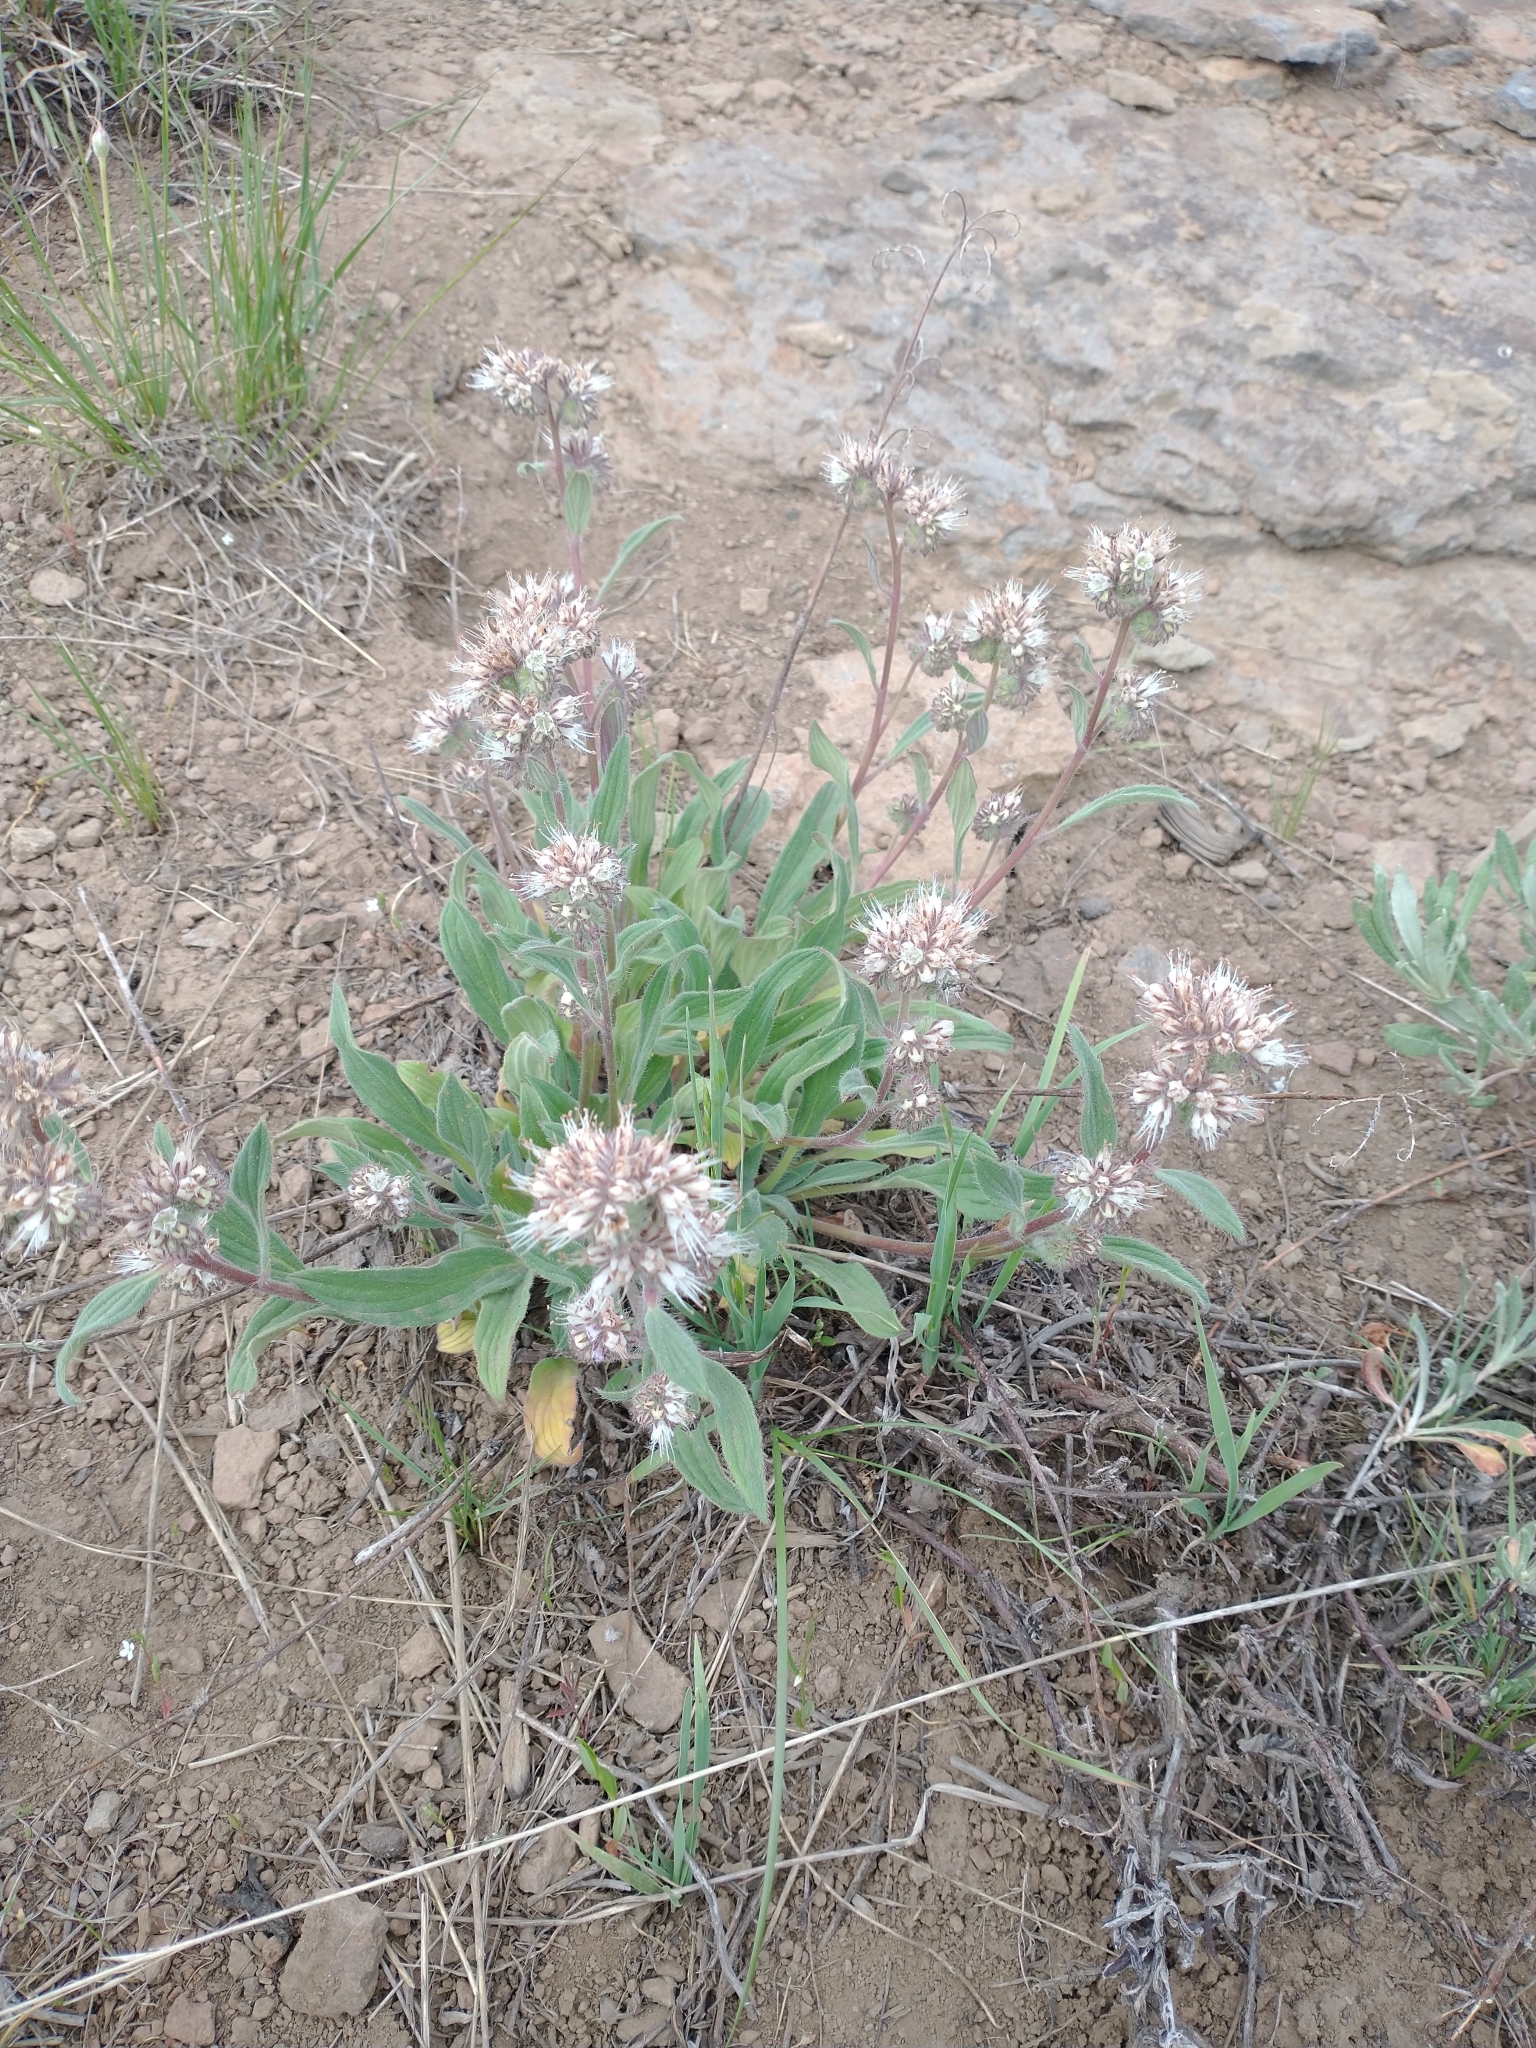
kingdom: Plantae
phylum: Tracheophyta
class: Magnoliopsida
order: Boraginales
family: Hydrophyllaceae
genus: Phacelia
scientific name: Phacelia hastata
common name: Silver-leaved phacelia
